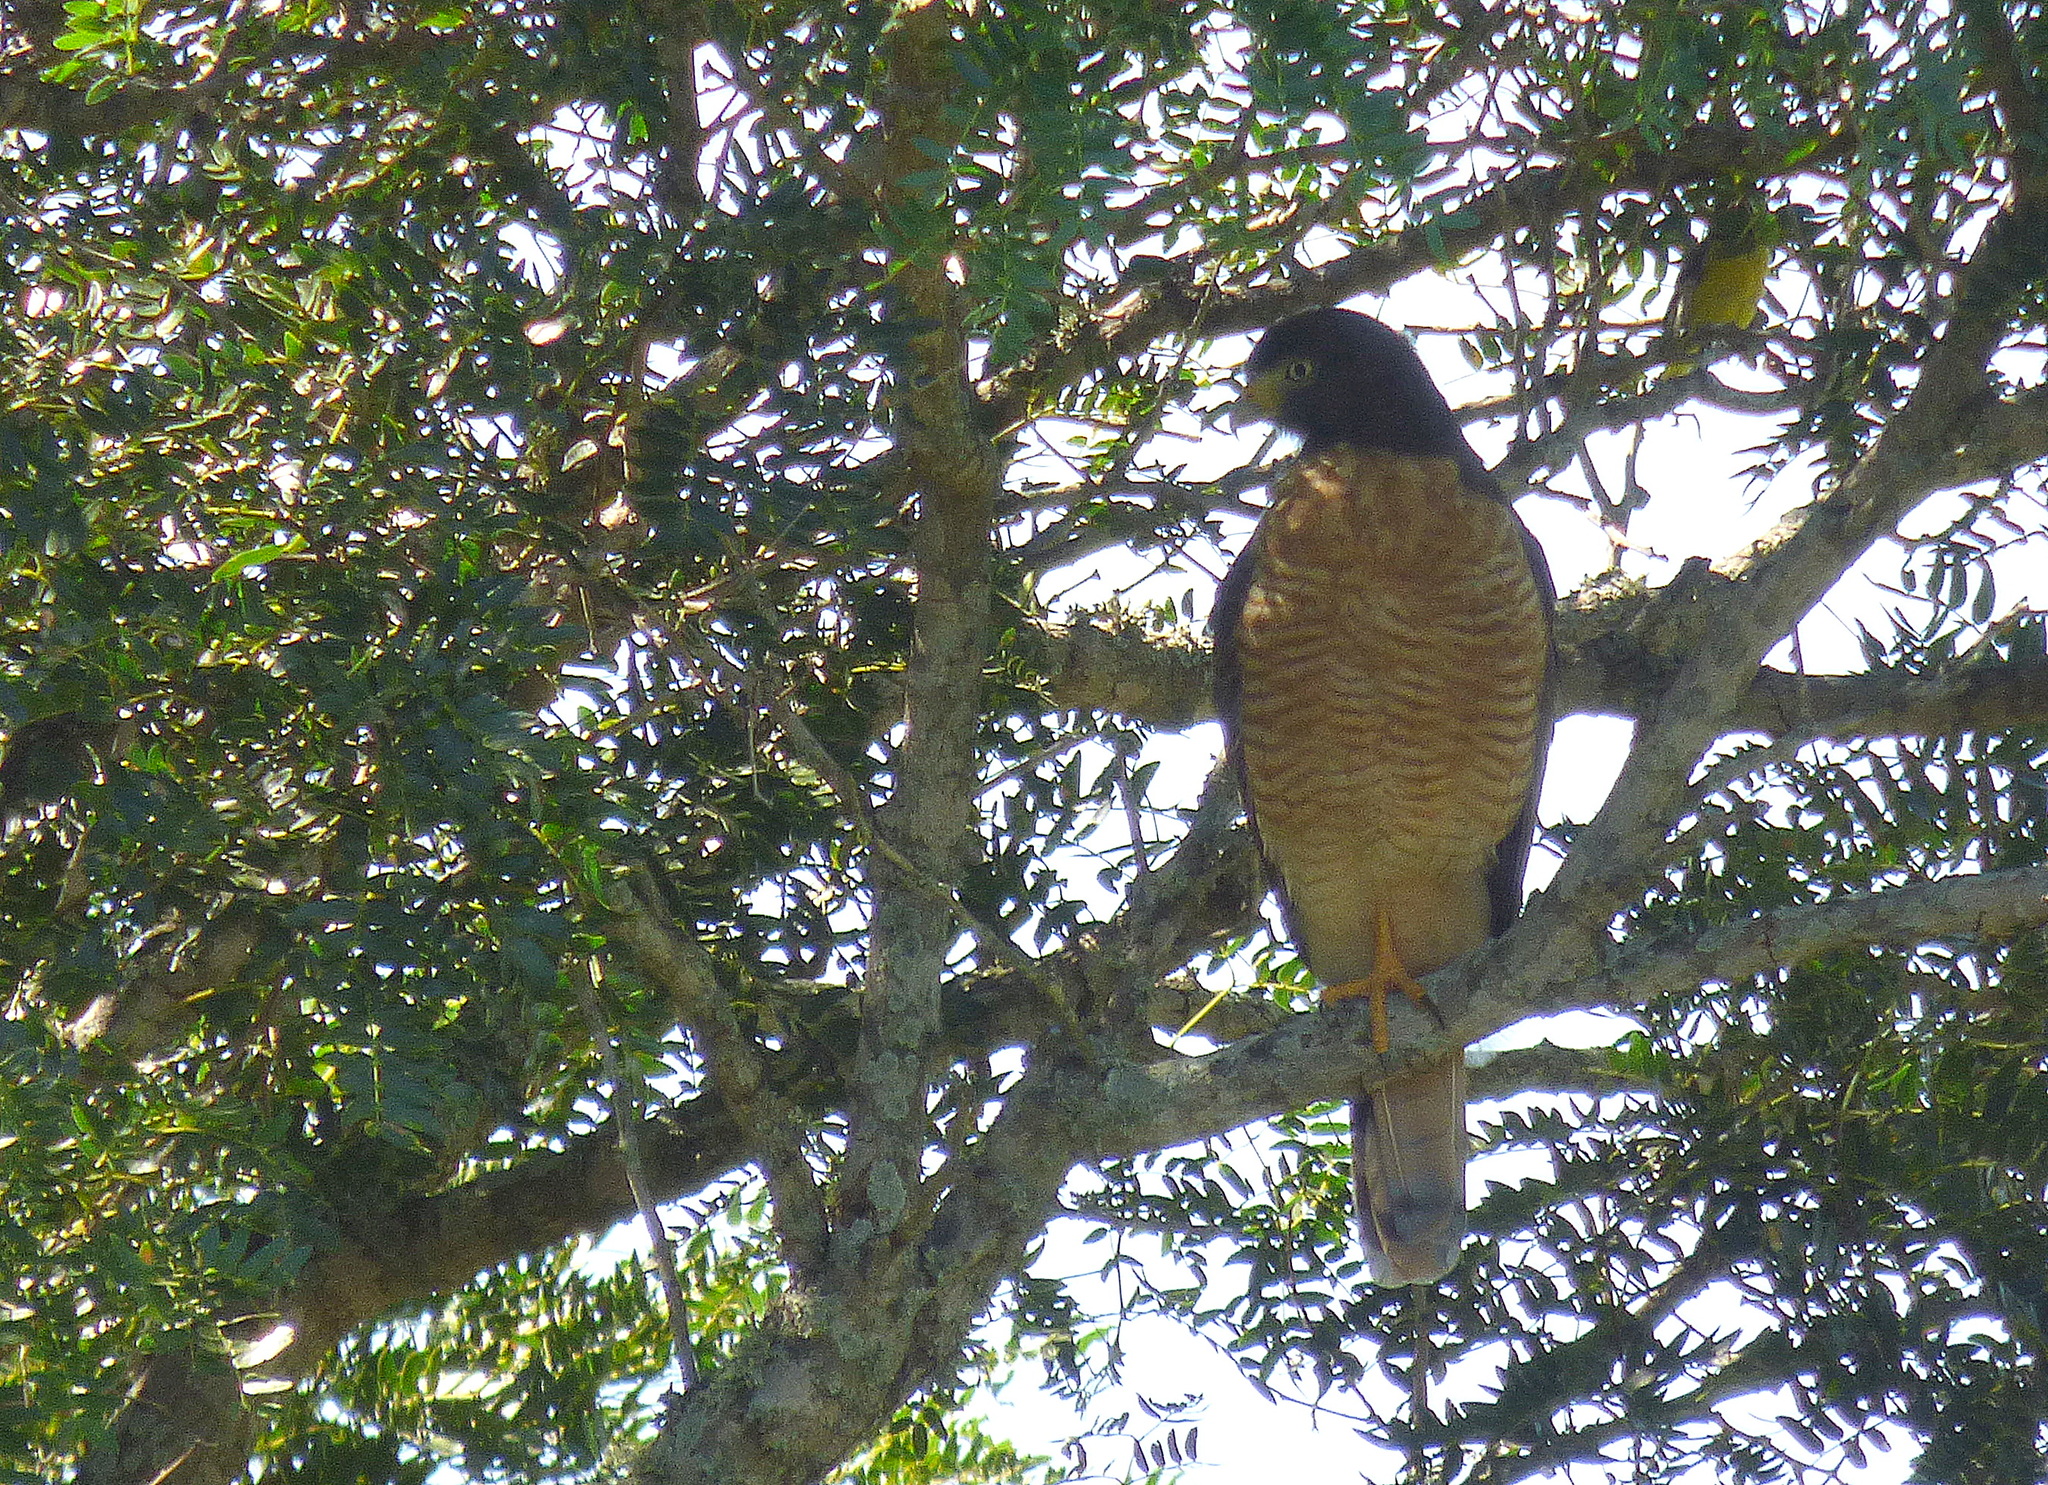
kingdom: Animalia
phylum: Chordata
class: Aves
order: Accipitriformes
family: Accipitridae
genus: Rupornis
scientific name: Rupornis magnirostris
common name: Roadside hawk
